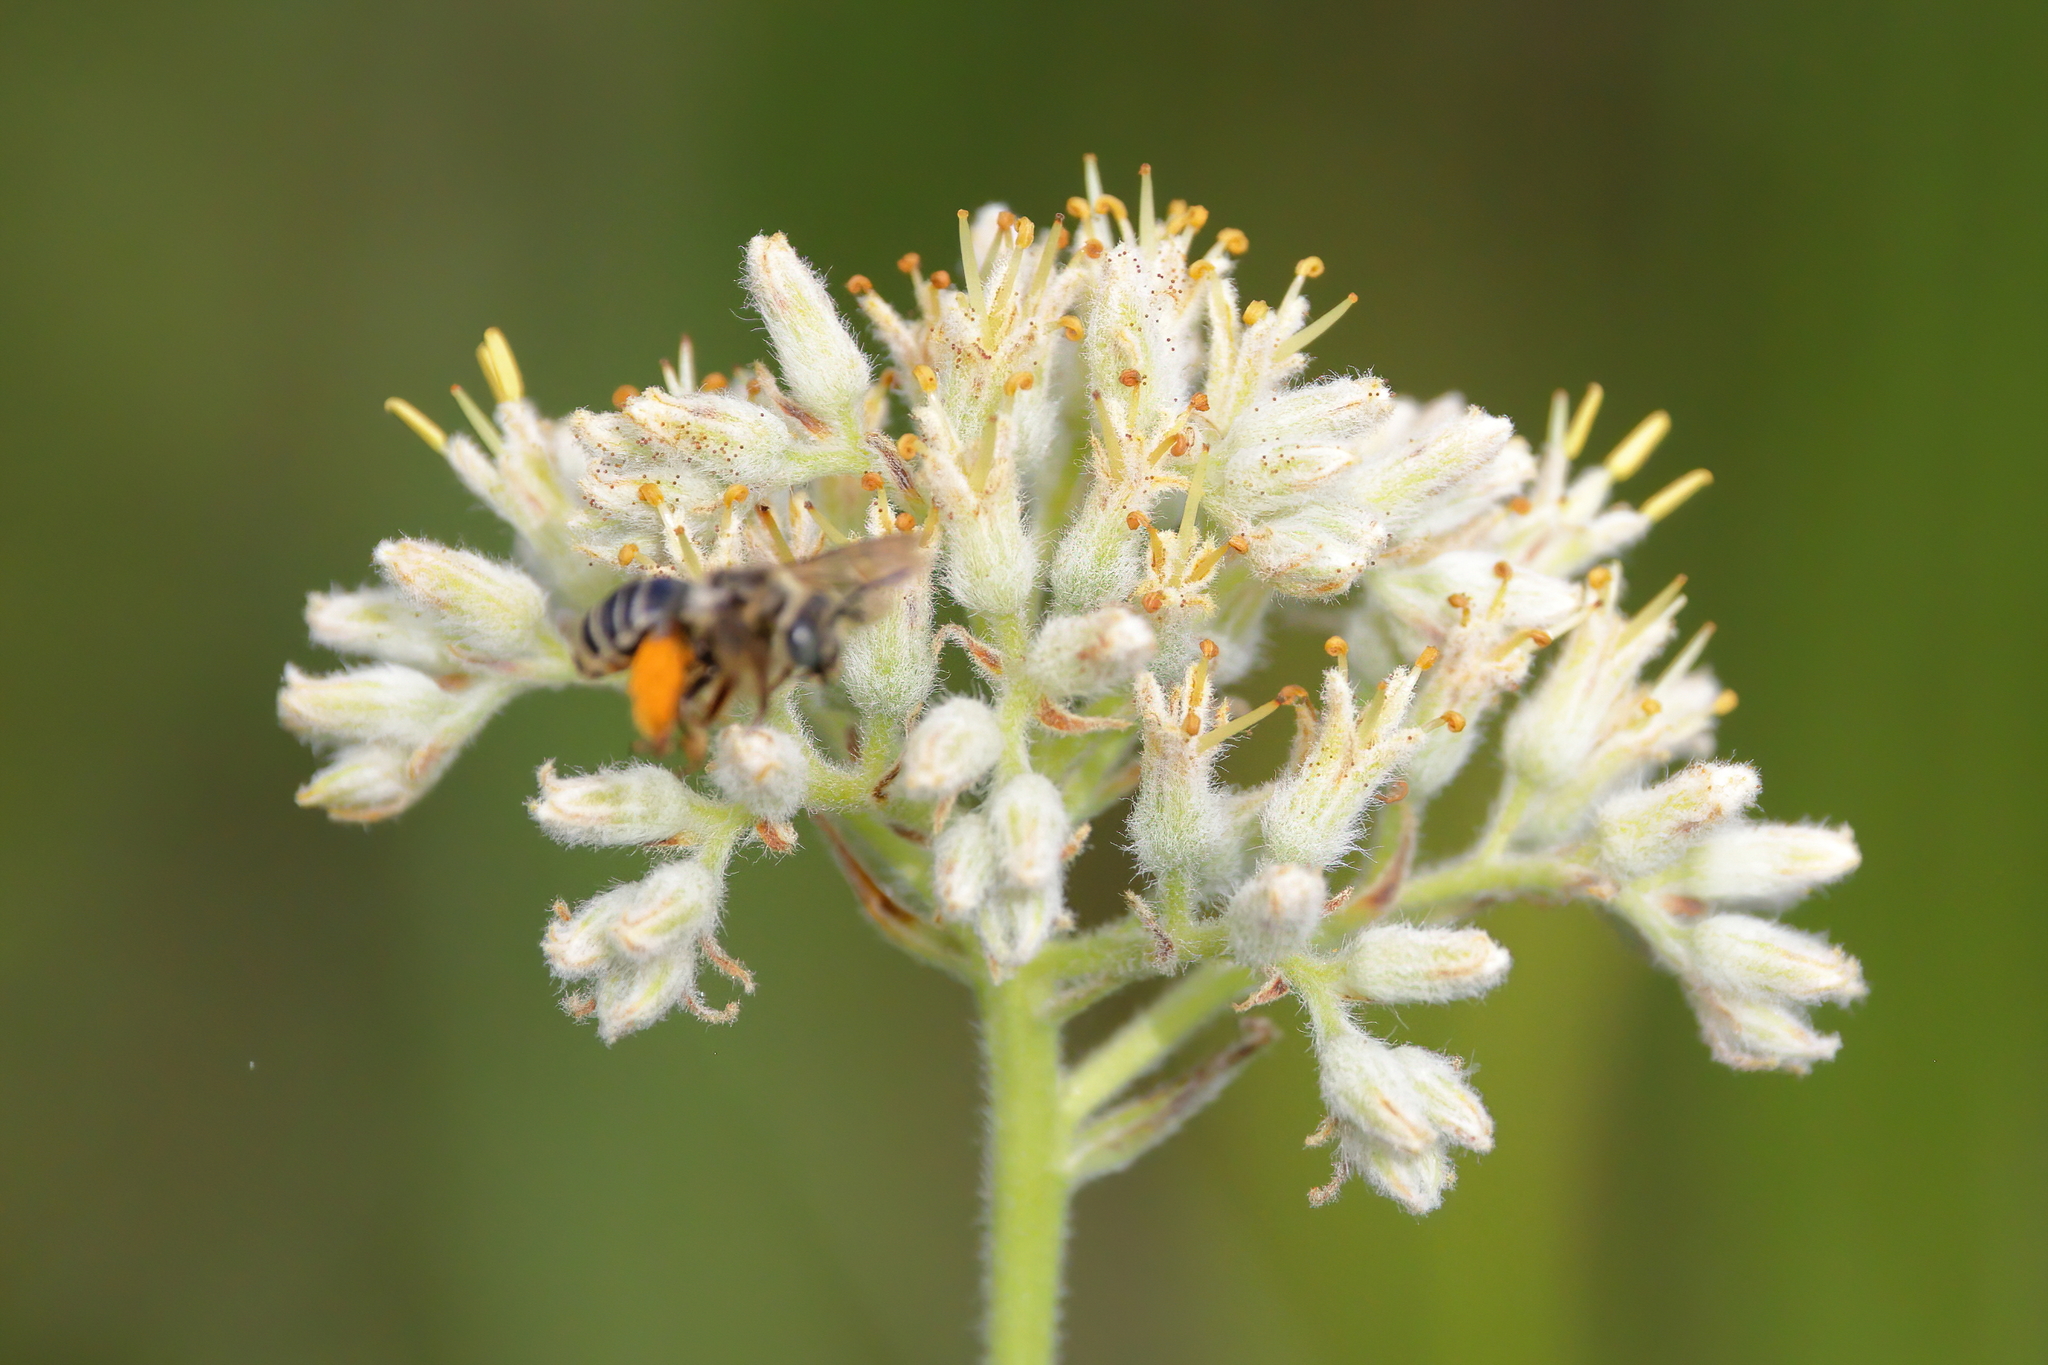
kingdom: Plantae
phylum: Tracheophyta
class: Liliopsida
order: Commelinales
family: Haemodoraceae
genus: Lachnanthes
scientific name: Lachnanthes caroliana
